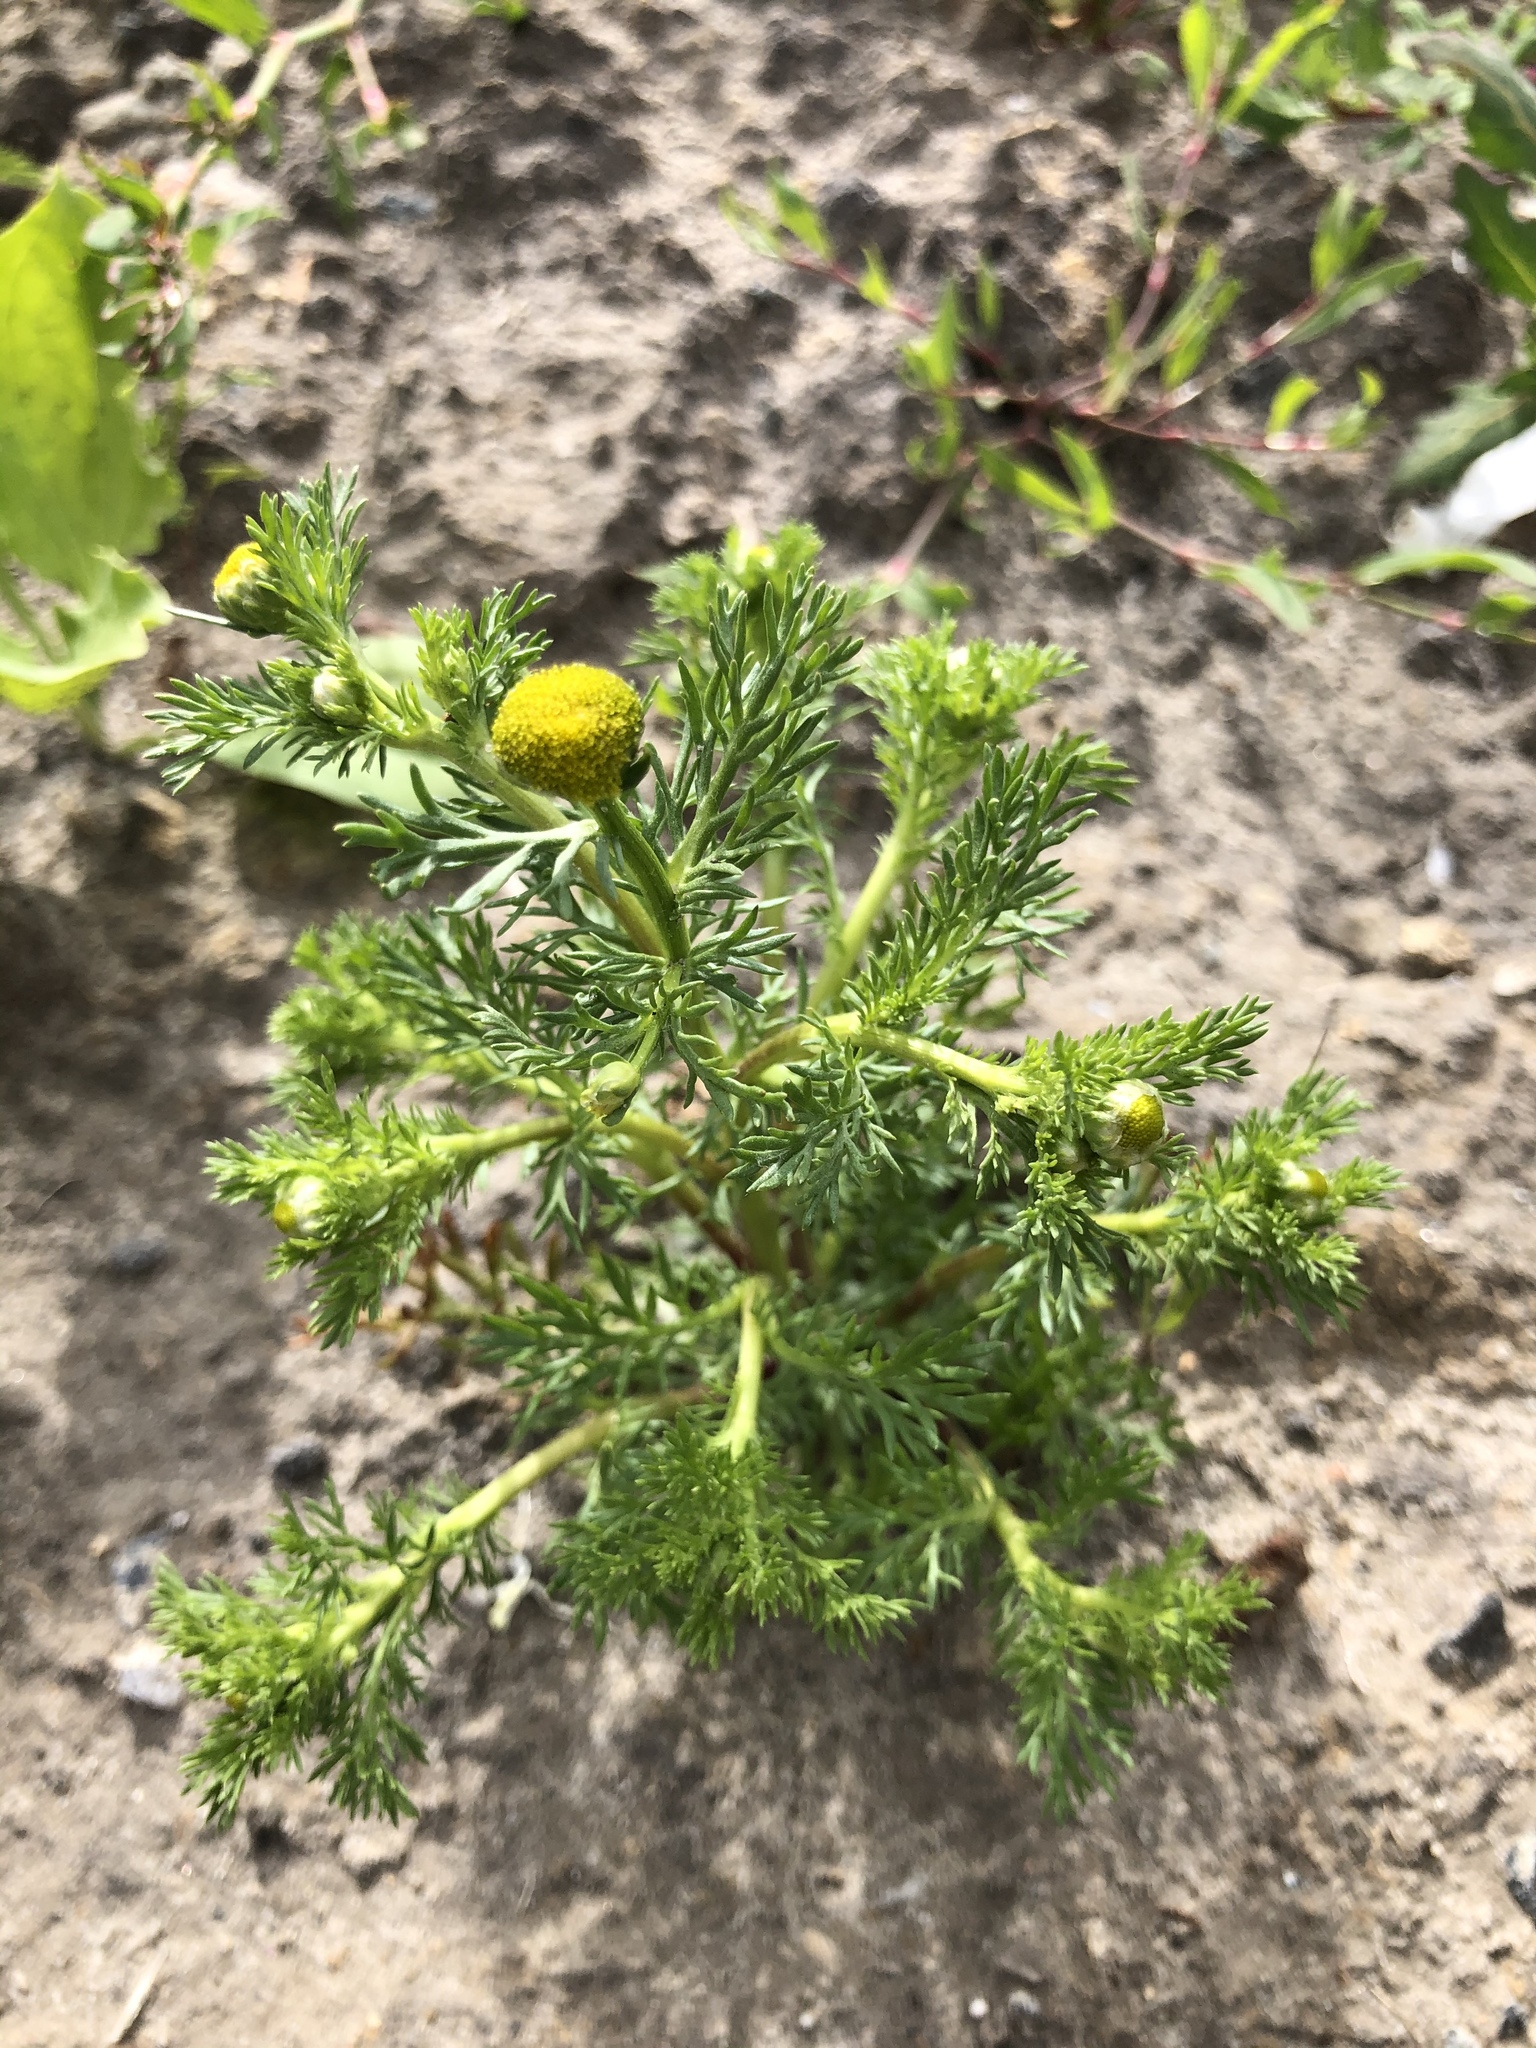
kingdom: Plantae
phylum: Tracheophyta
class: Magnoliopsida
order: Asterales
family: Asteraceae
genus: Matricaria
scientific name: Matricaria discoidea
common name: Disc mayweed
